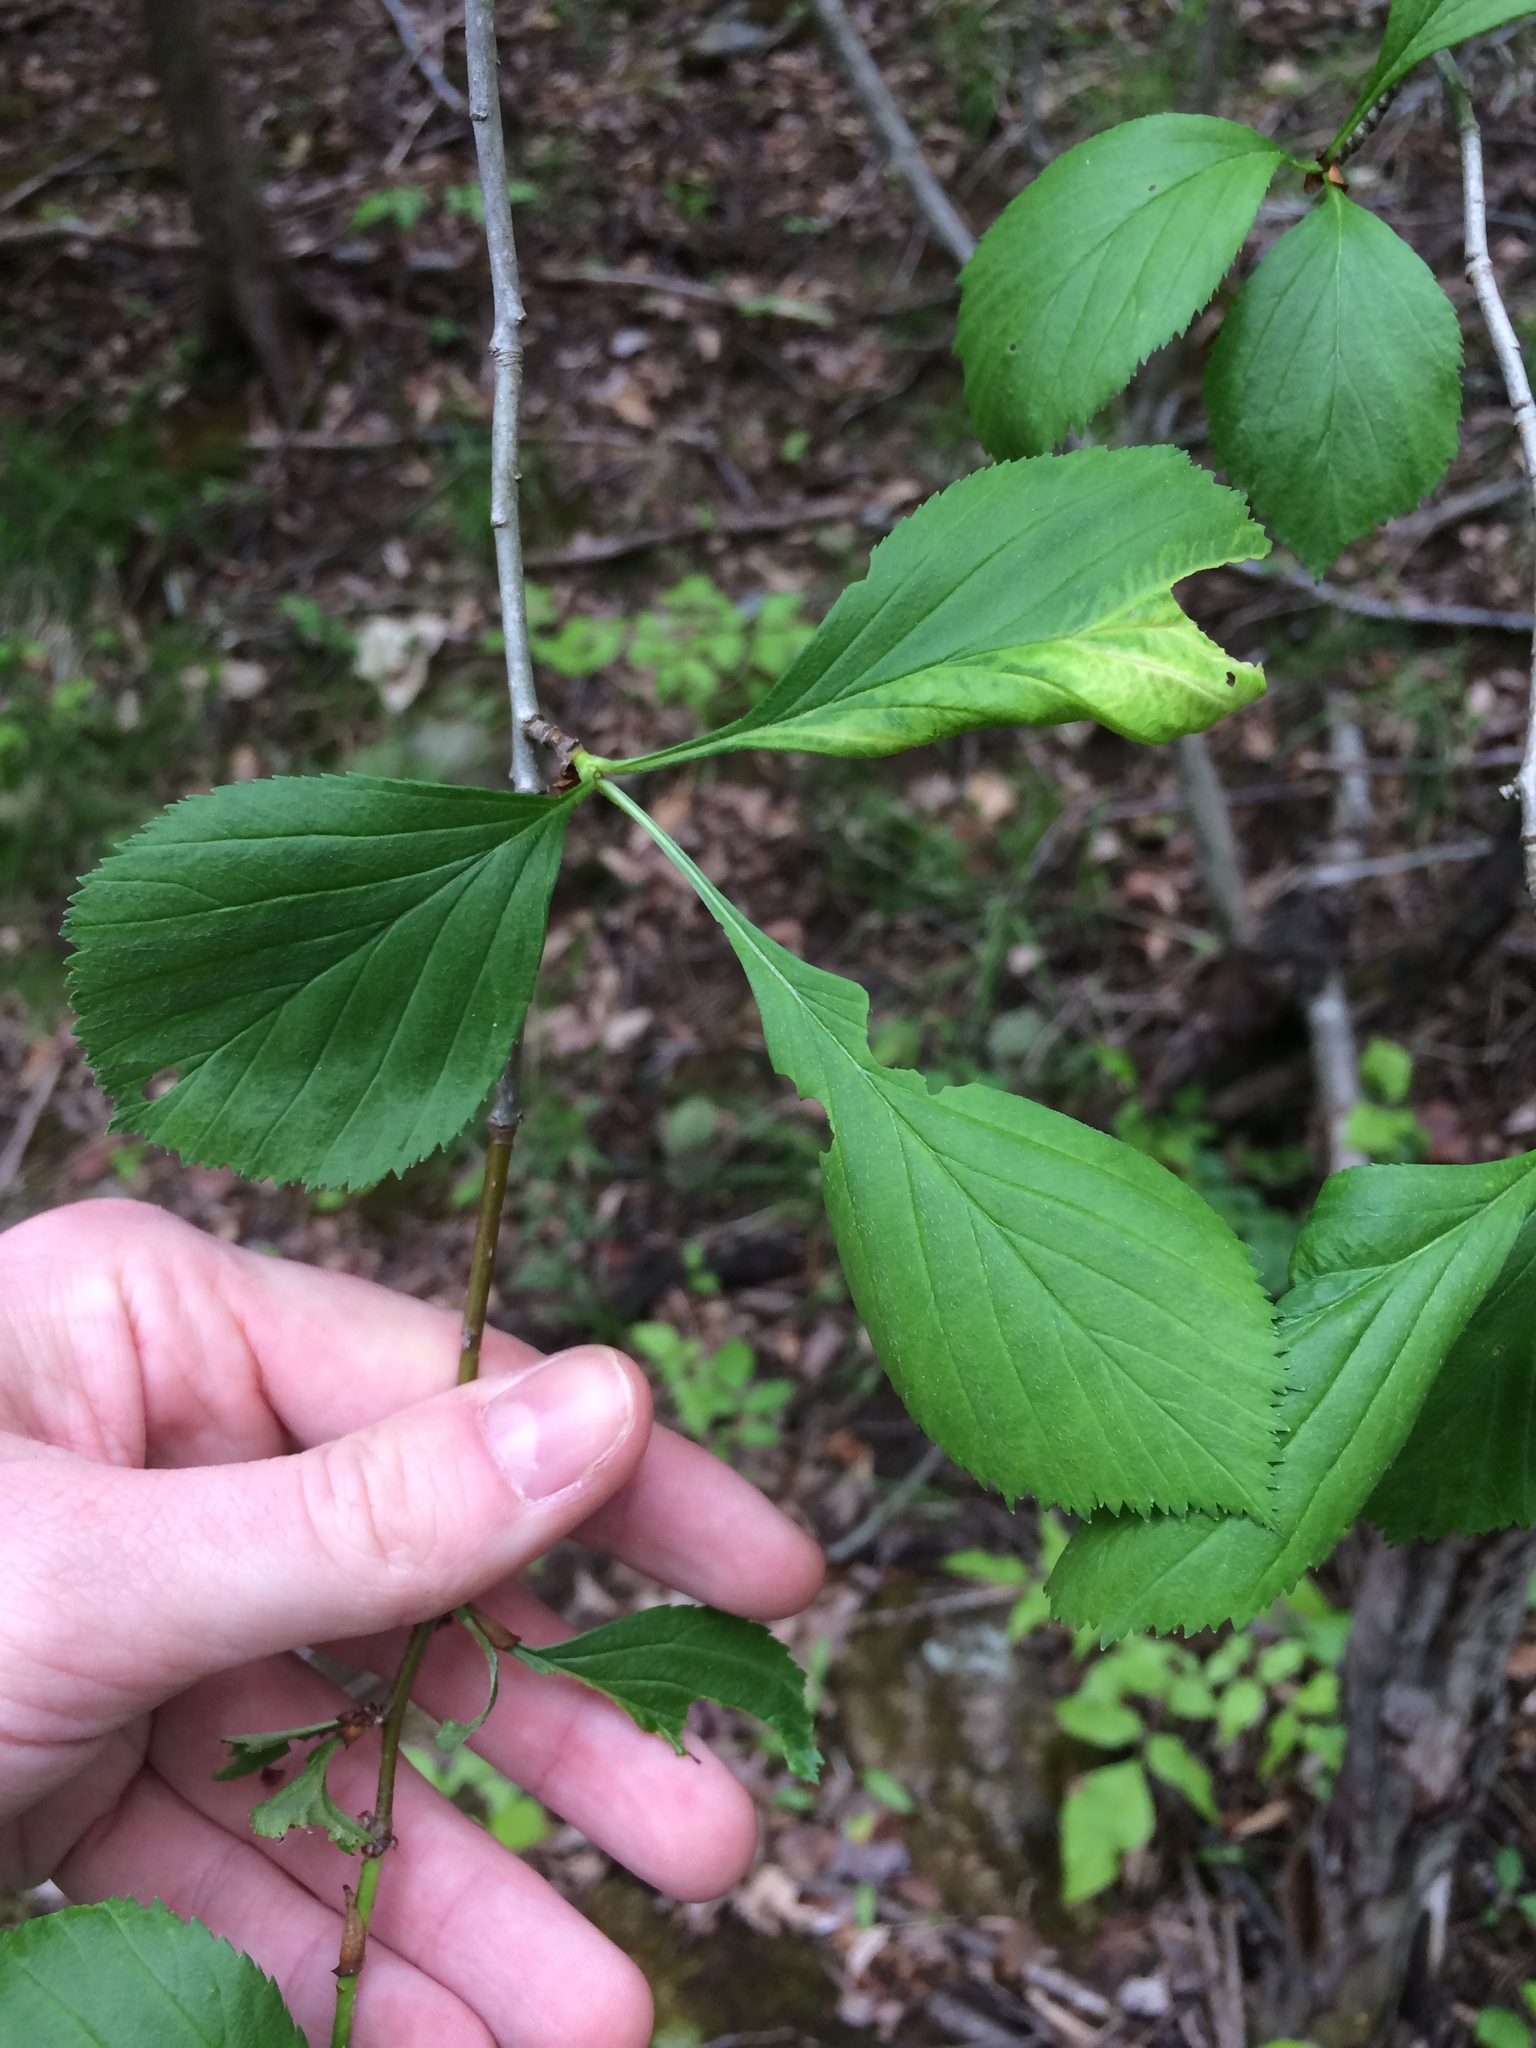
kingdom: Plantae
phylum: Tracheophyta
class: Magnoliopsida
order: Rosales
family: Rosaceae
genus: Crataegus
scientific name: Crataegus punctata
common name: Dotted hawthorn
